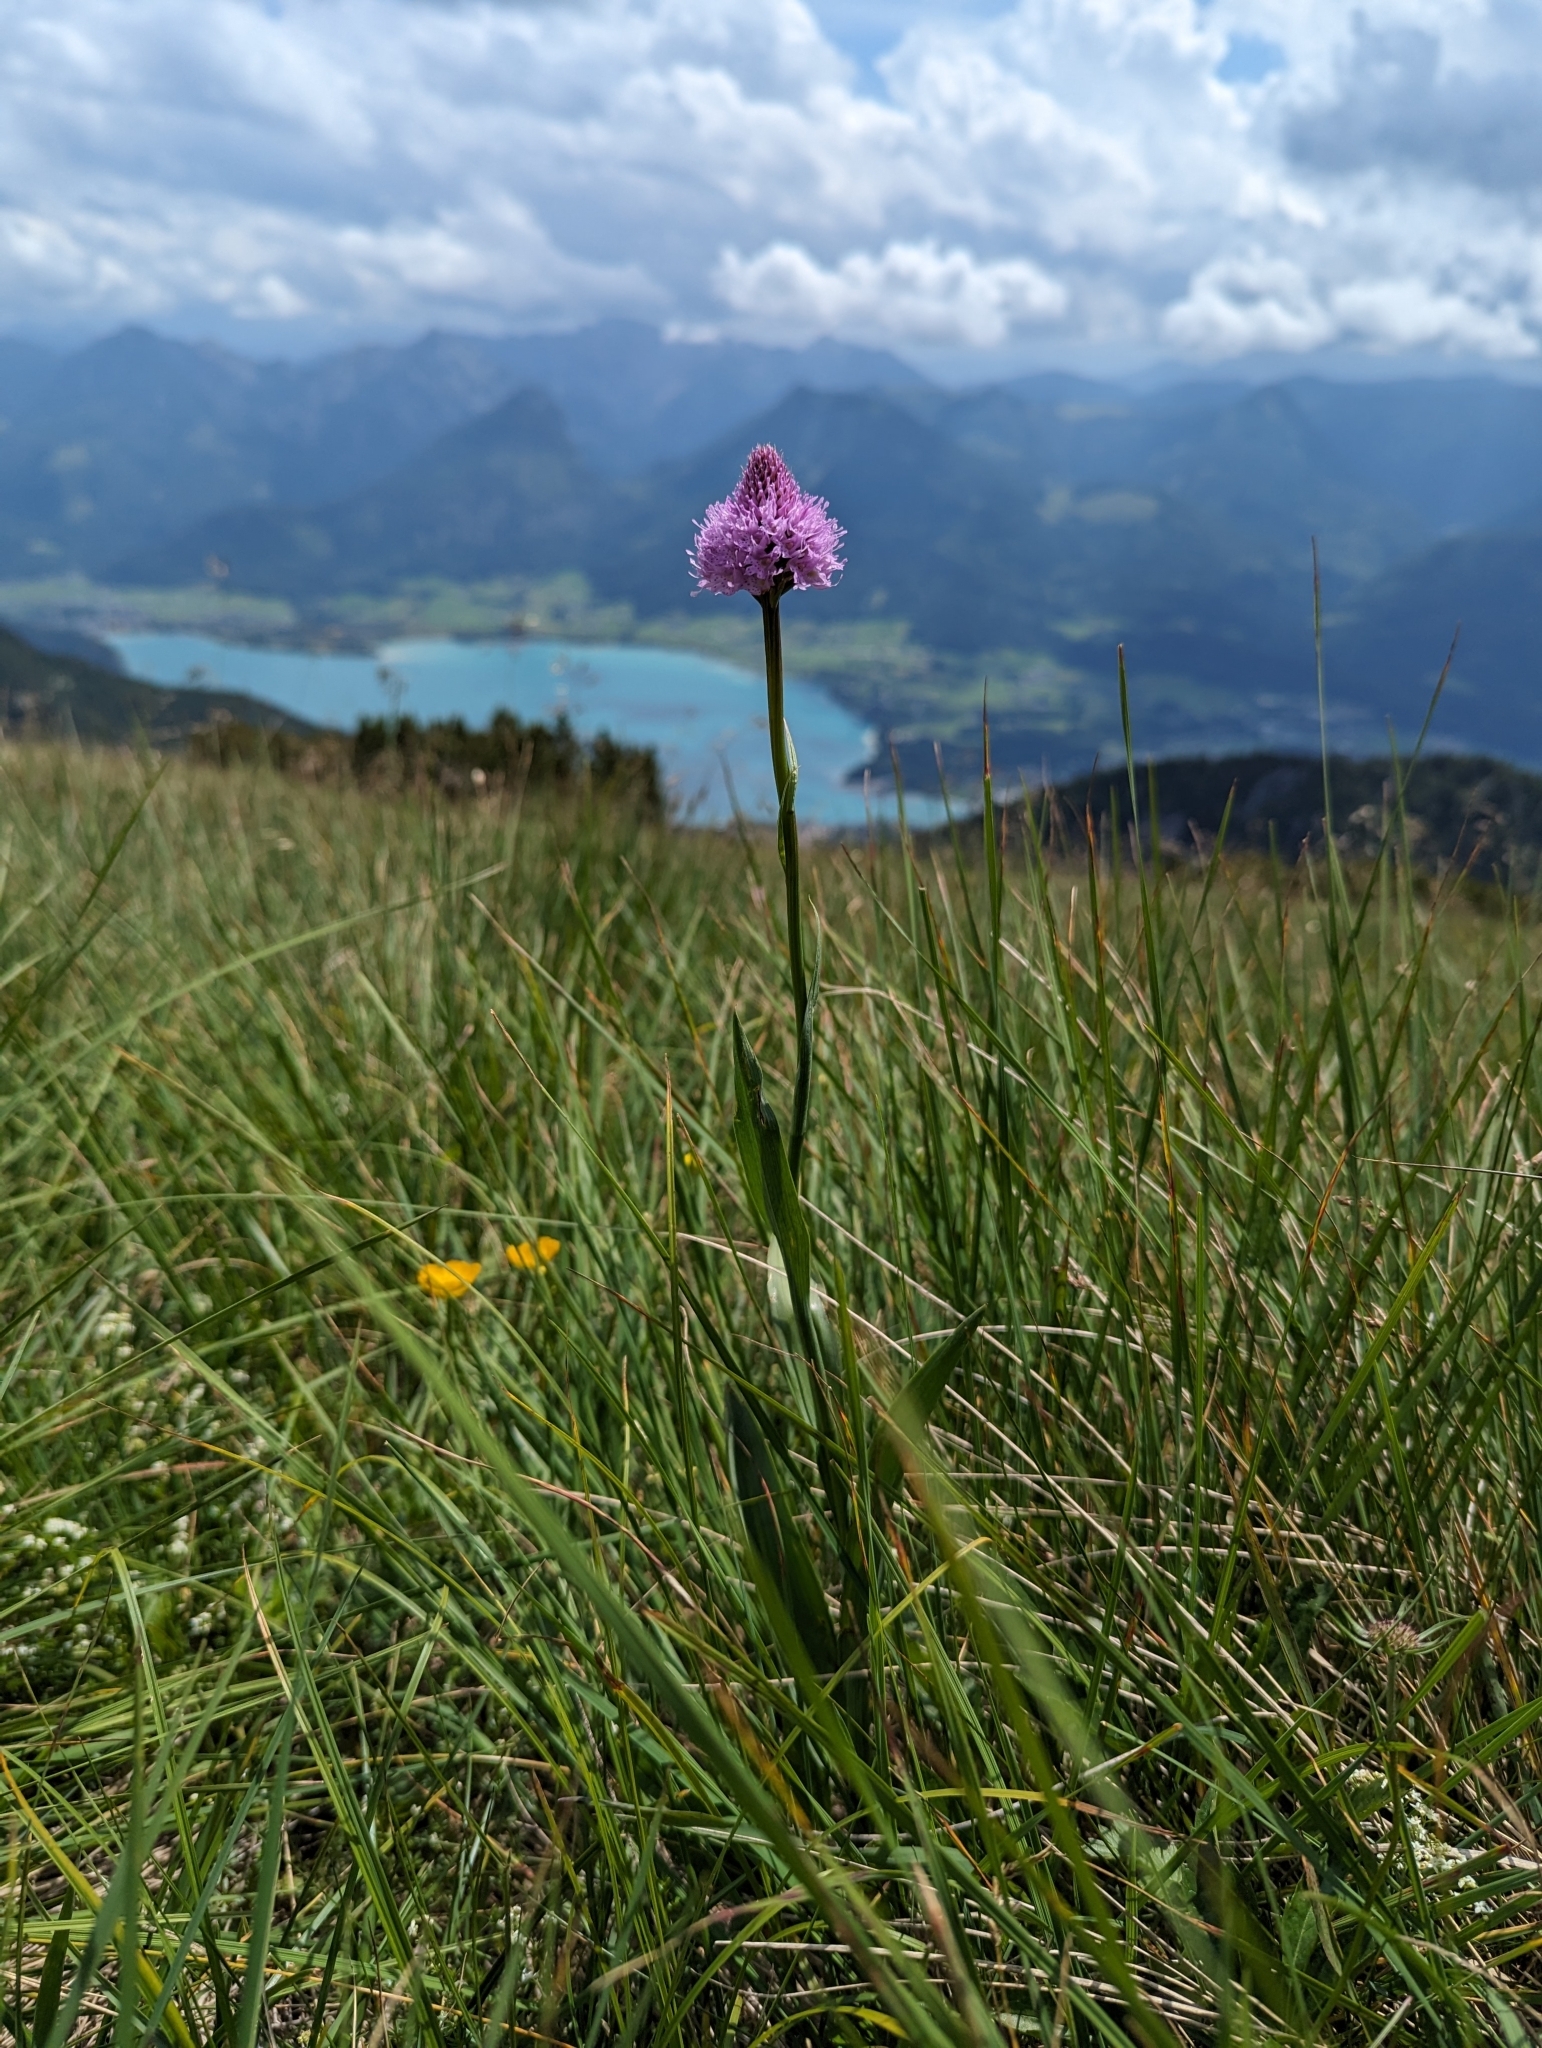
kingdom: Plantae
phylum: Tracheophyta
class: Liliopsida
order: Asparagales
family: Orchidaceae
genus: Traunsteinera
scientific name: Traunsteinera globosa
